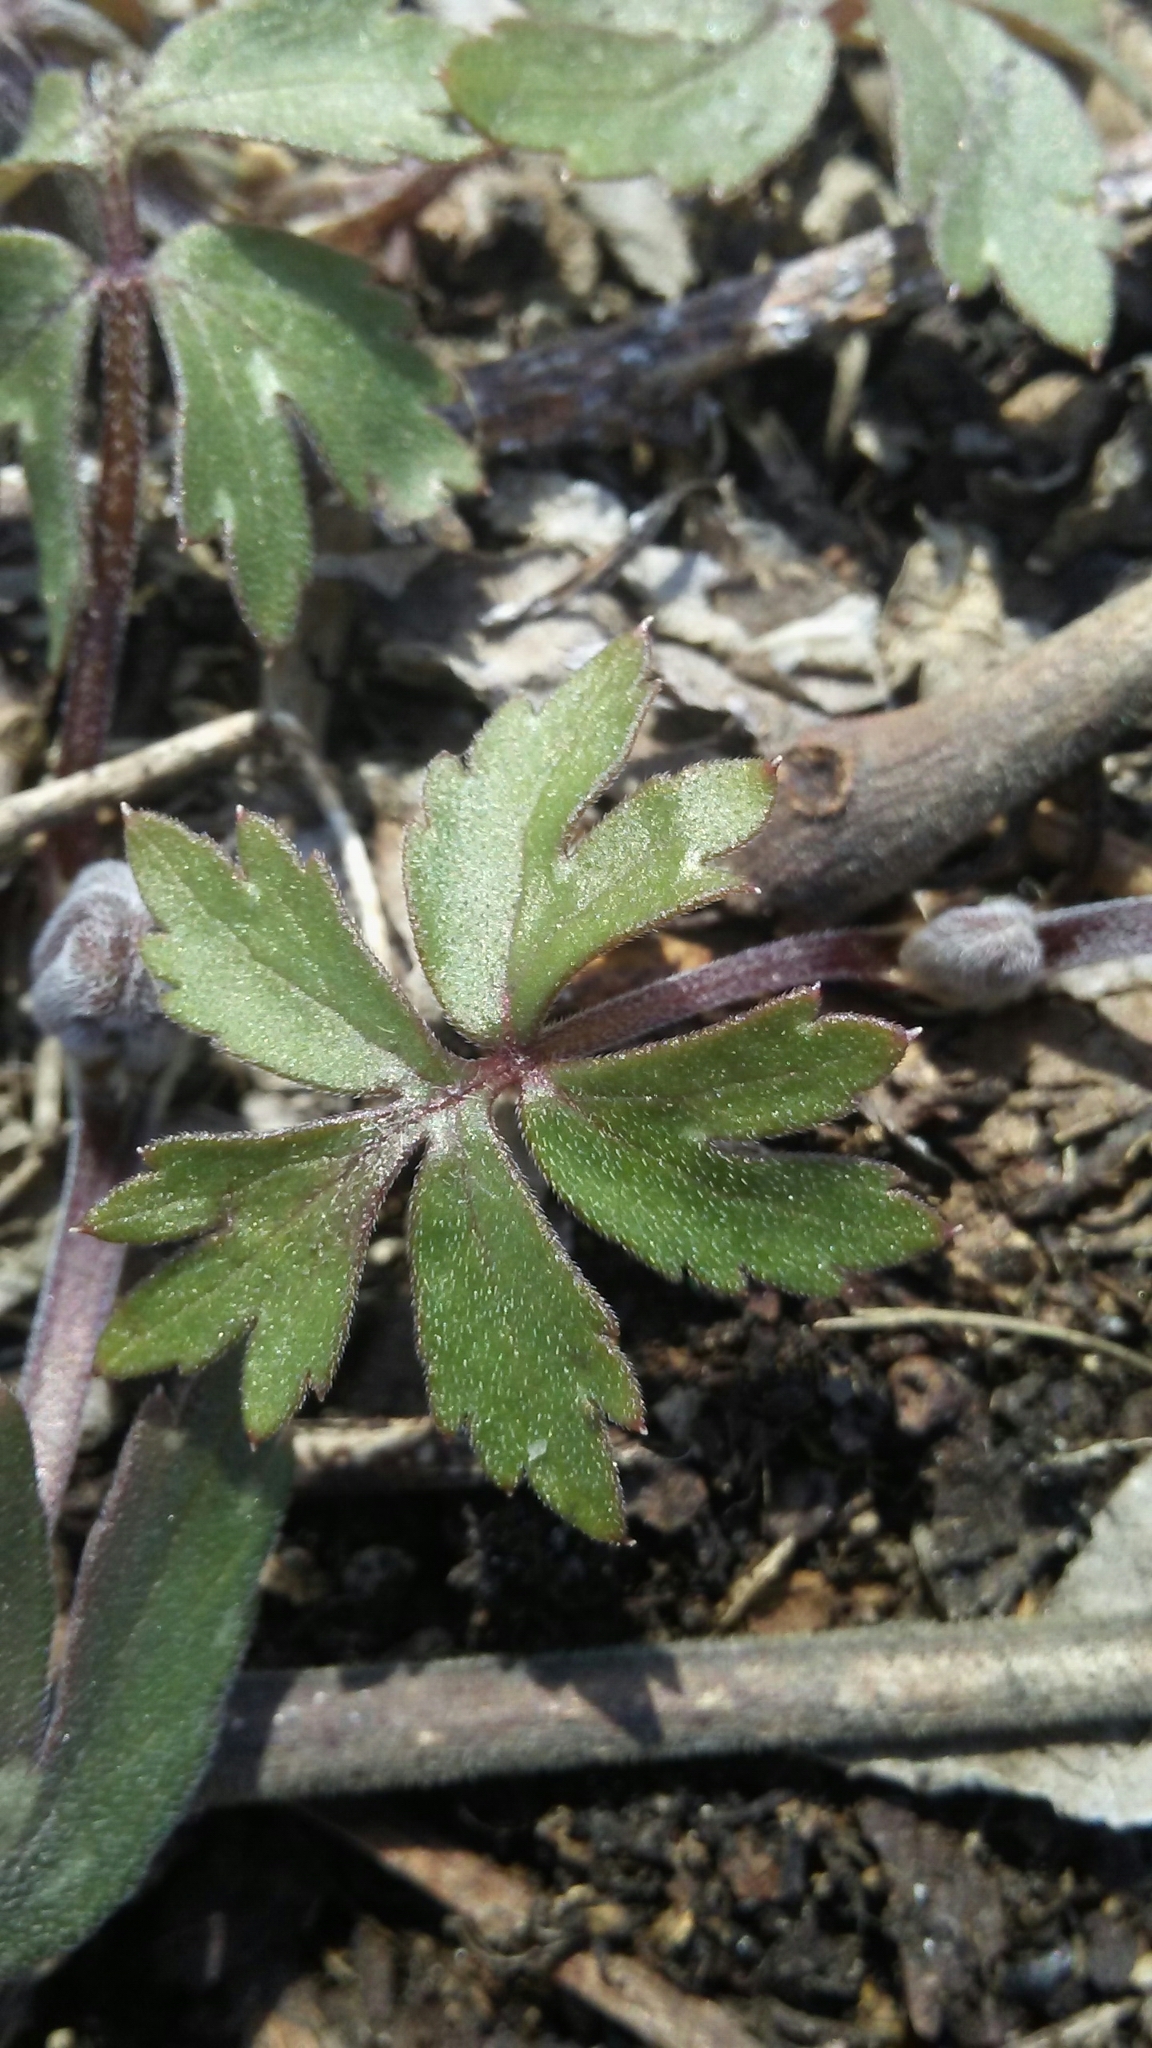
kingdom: Plantae
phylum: Tracheophyta
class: Magnoliopsida
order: Boraginales
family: Hydrophyllaceae
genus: Hydrophyllum
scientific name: Hydrophyllum virginianum
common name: Virginia waterleaf
